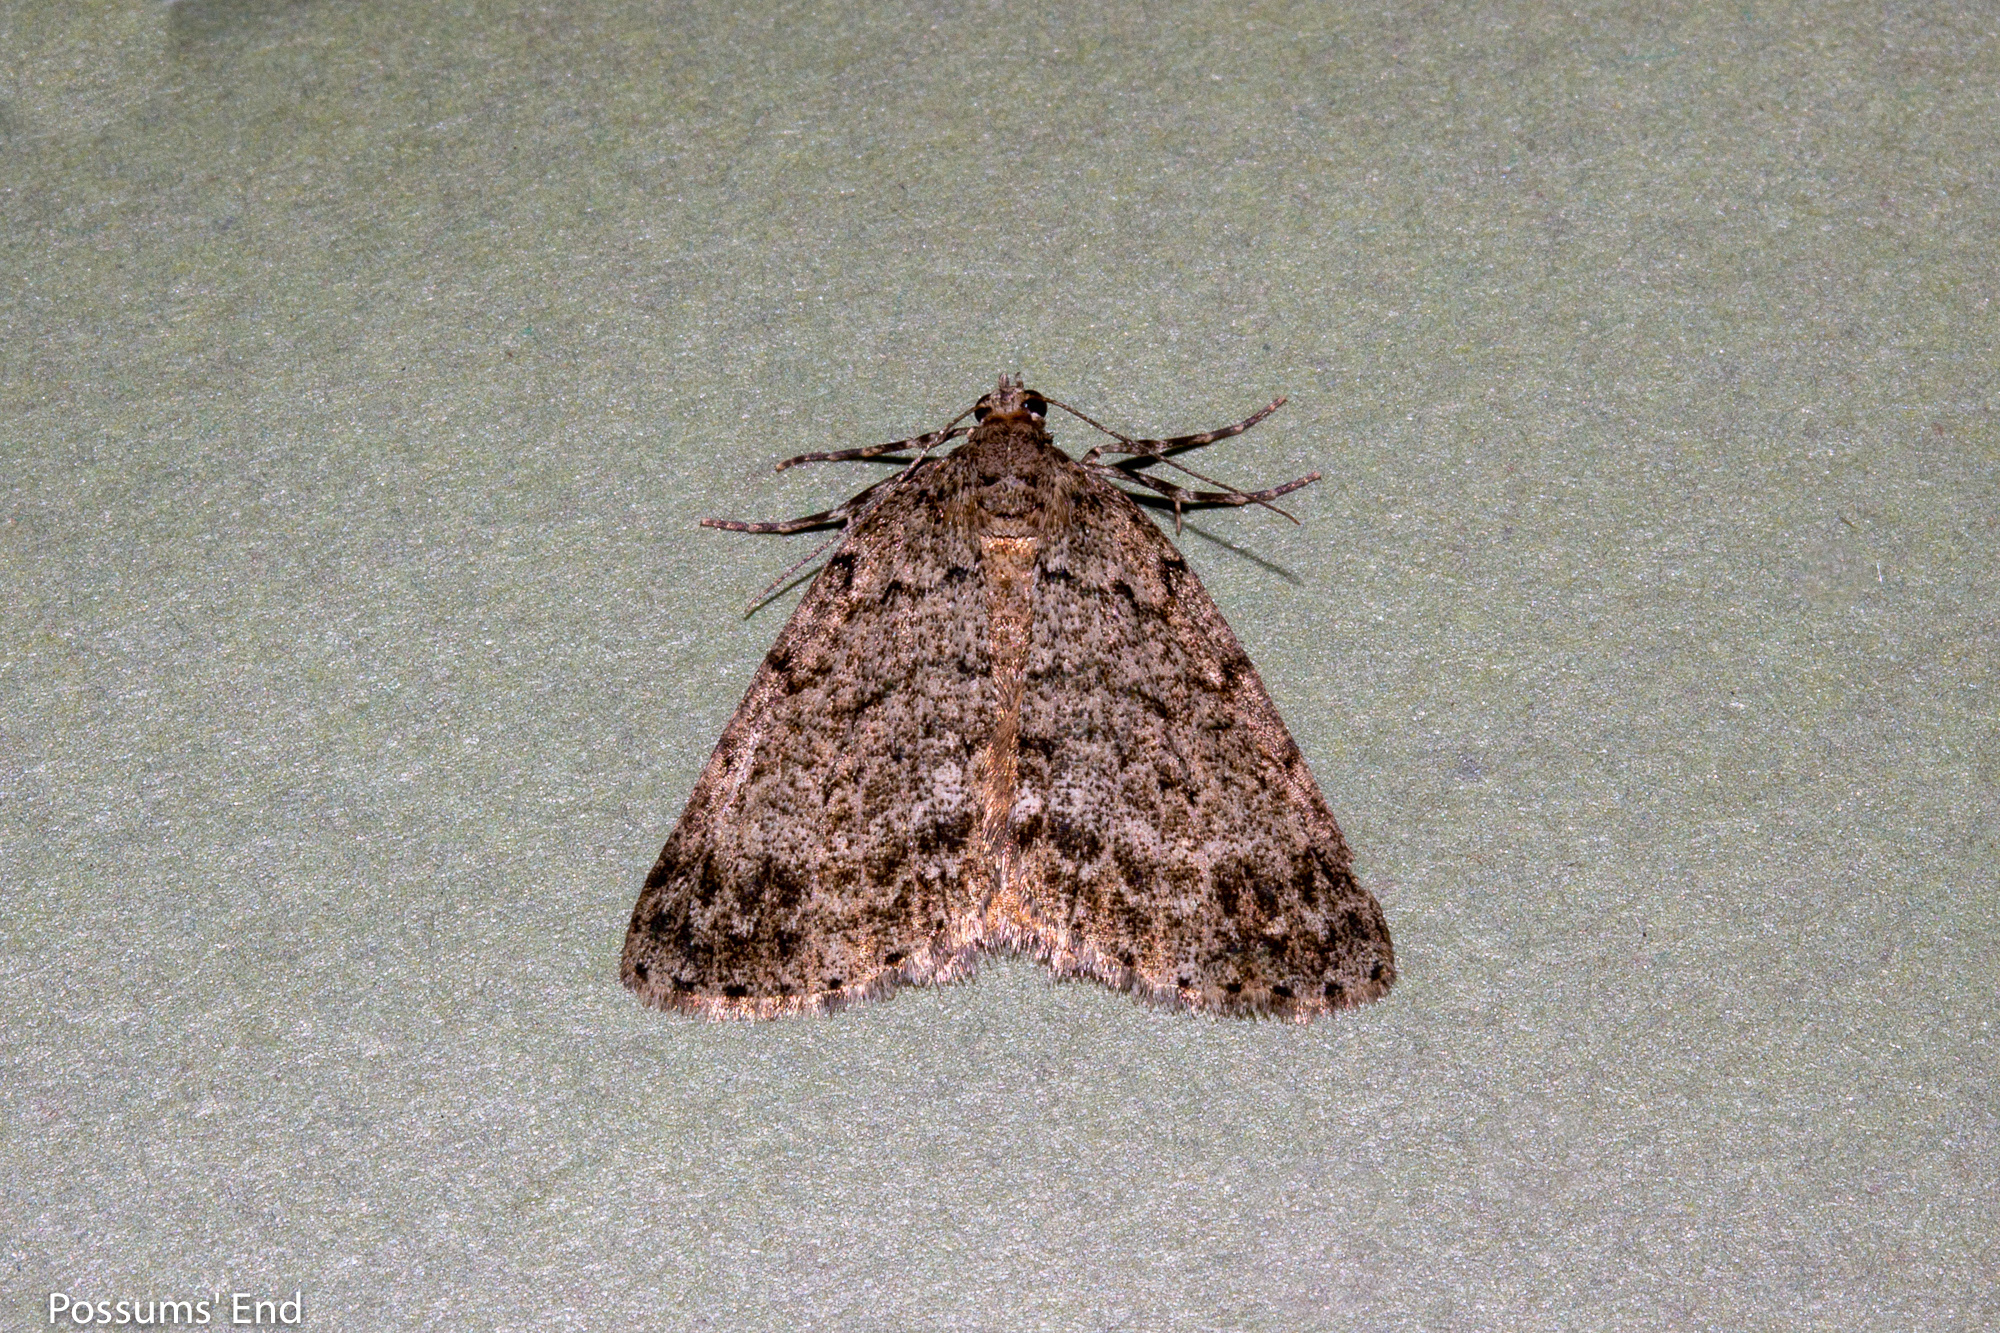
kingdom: Animalia
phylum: Arthropoda
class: Insecta
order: Lepidoptera
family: Geometridae
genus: Pseudocoremia
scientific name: Pseudocoremia indistincta
